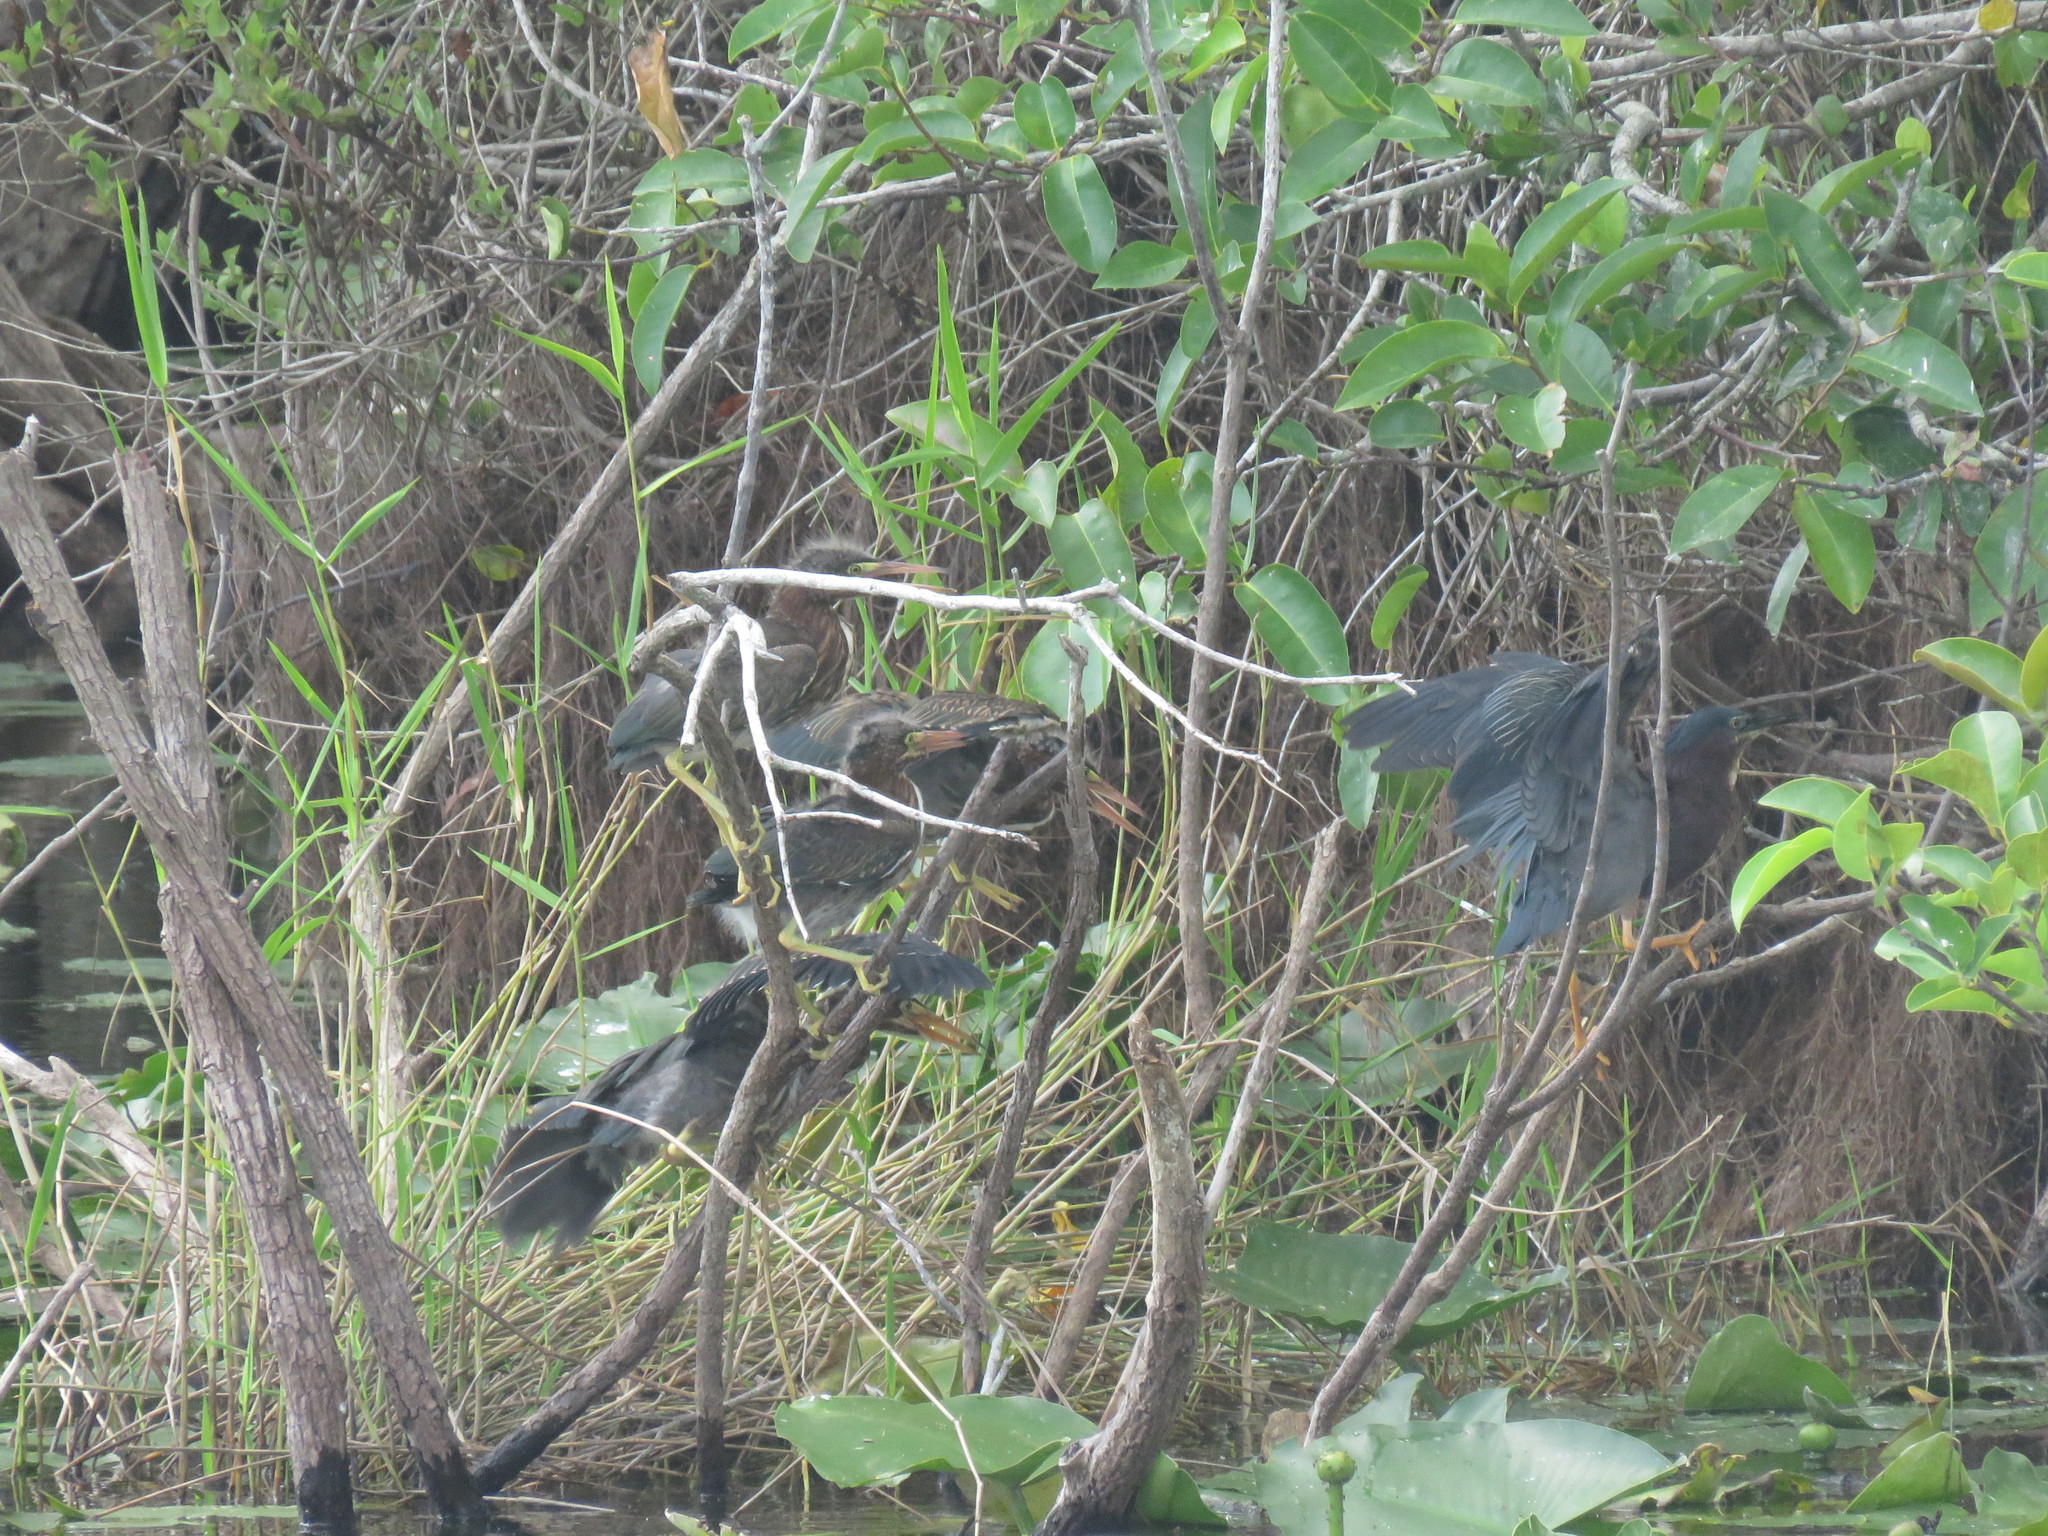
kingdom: Animalia
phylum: Chordata
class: Aves
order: Pelecaniformes
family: Ardeidae
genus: Butorides
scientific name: Butorides virescens
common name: Green heron
